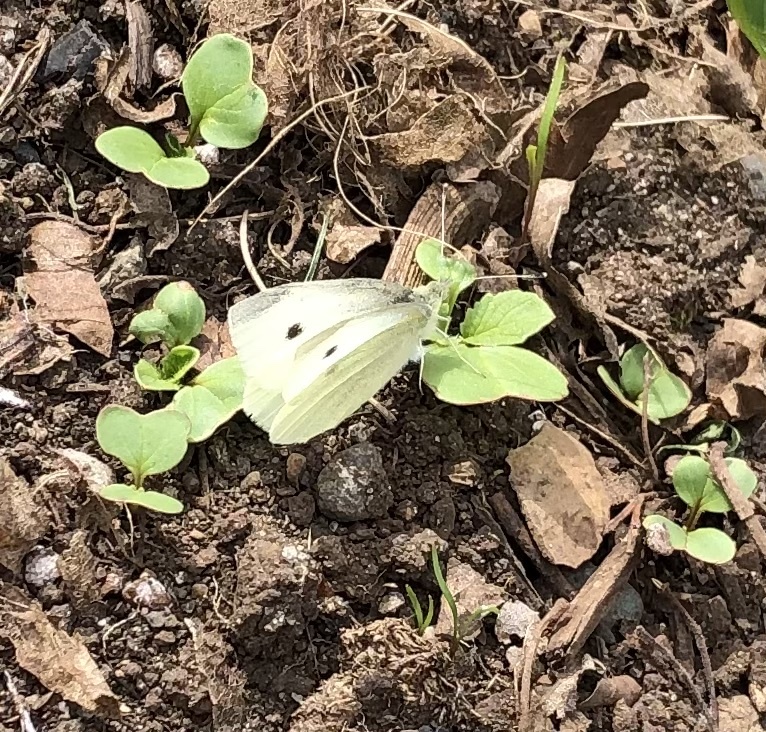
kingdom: Animalia
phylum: Arthropoda
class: Insecta
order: Lepidoptera
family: Pieridae
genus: Pieris
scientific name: Pieris rapae
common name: Small white
